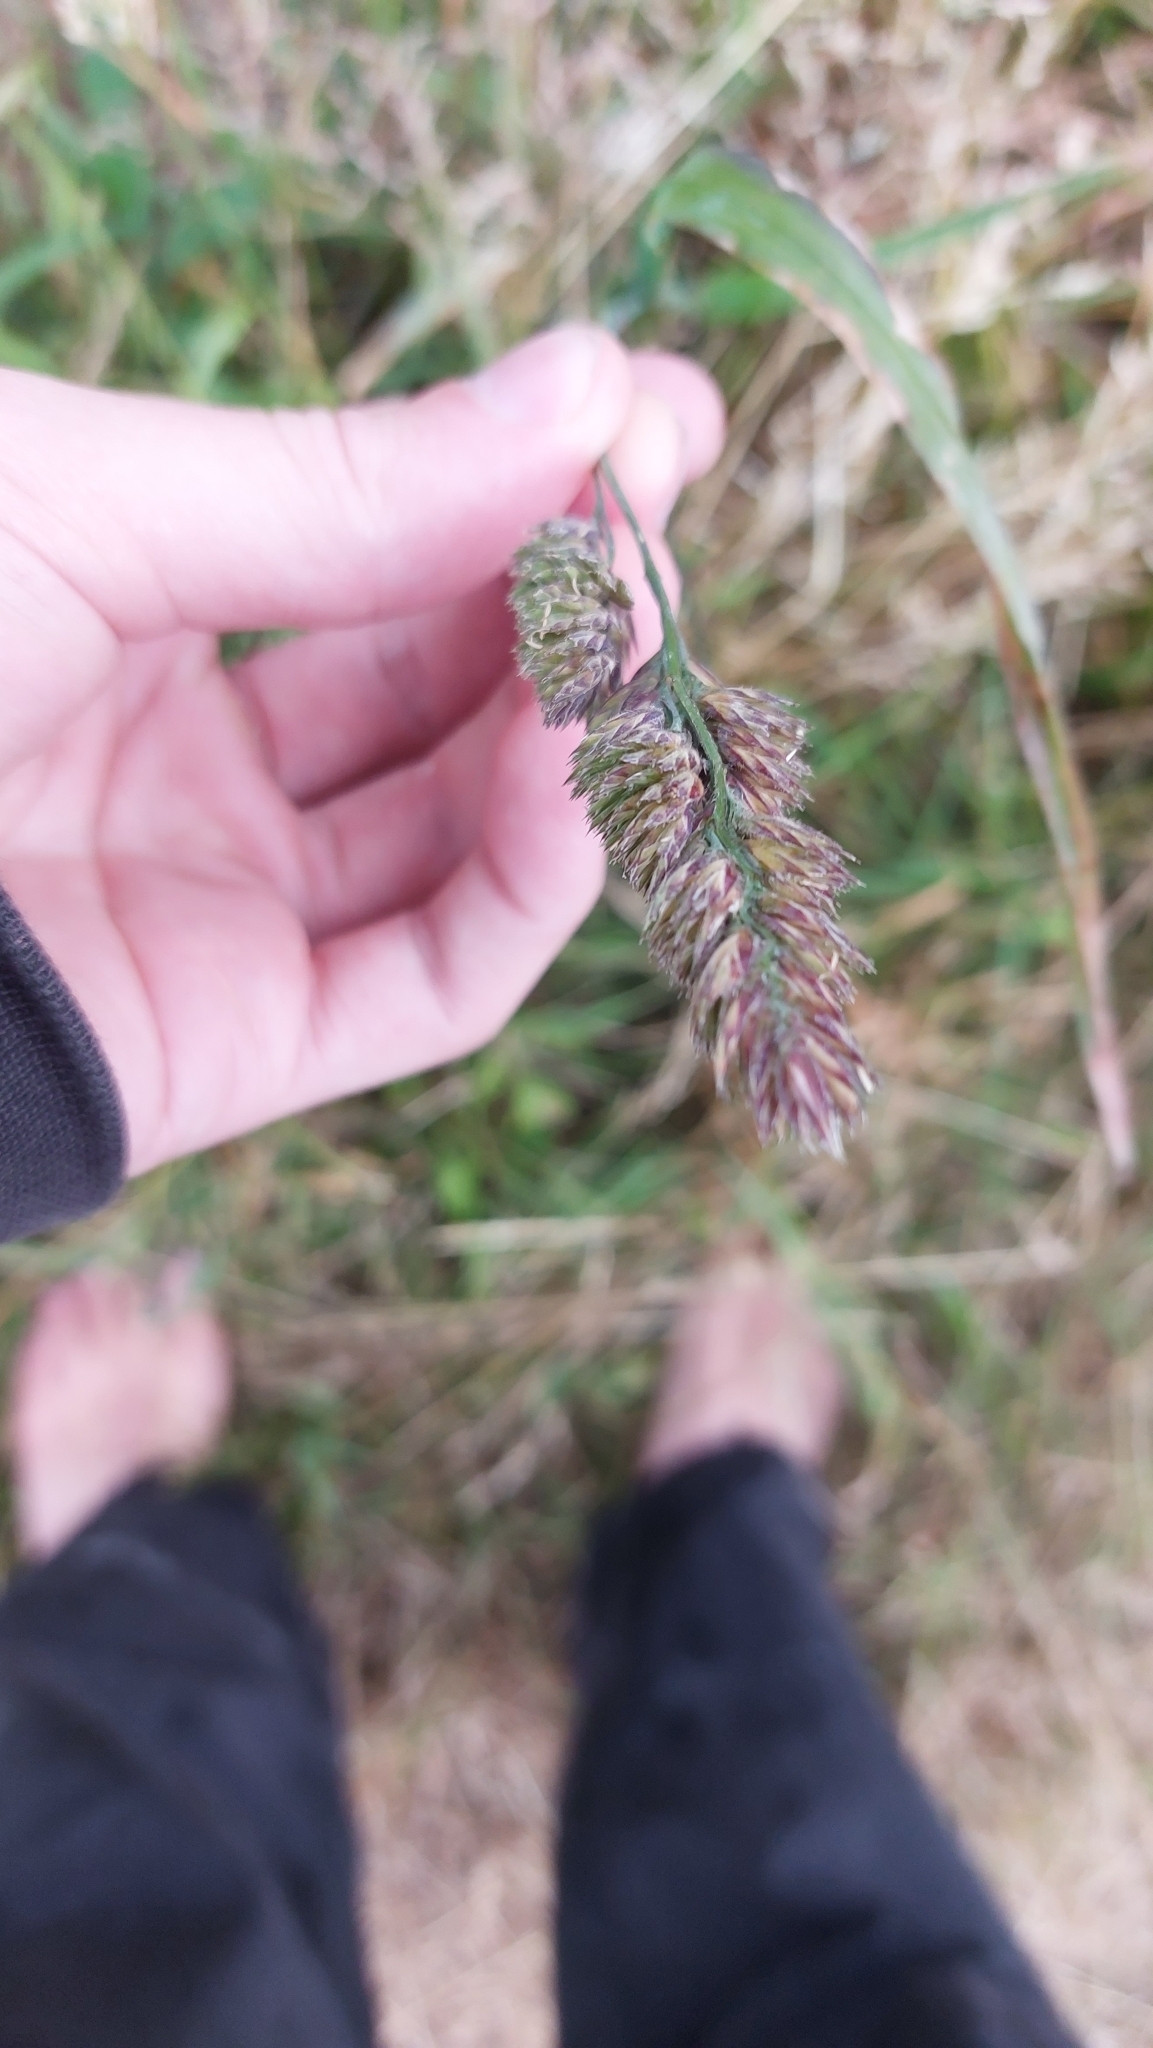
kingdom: Plantae
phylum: Tracheophyta
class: Liliopsida
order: Poales
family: Poaceae
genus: Dactylis
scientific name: Dactylis glomerata
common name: Orchardgrass
